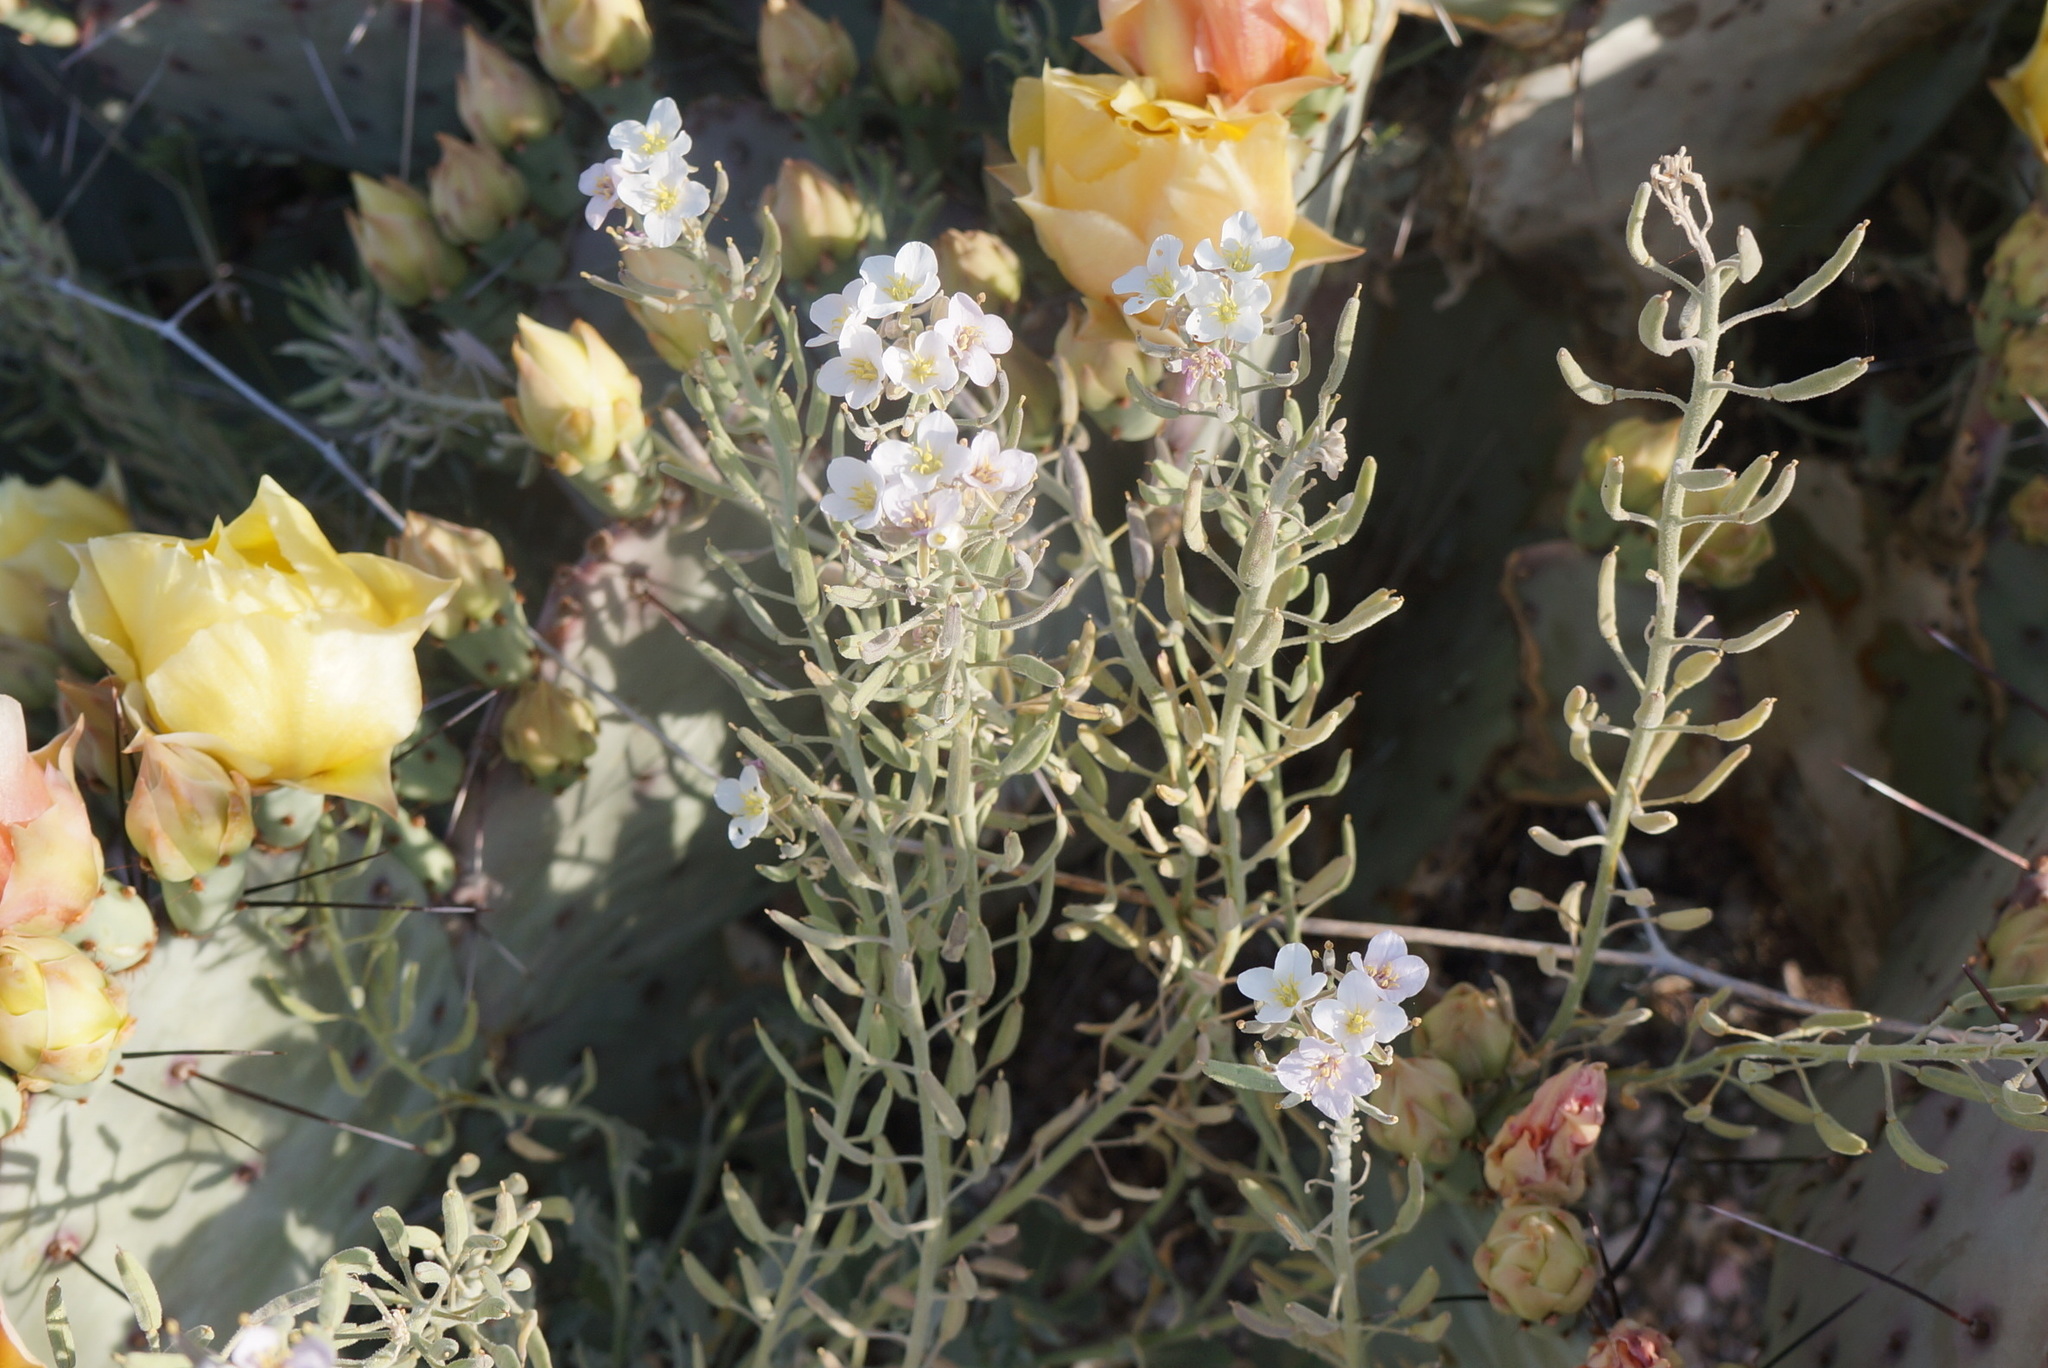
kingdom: Plantae
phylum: Tracheophyta
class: Magnoliopsida
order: Brassicales
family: Brassicaceae
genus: Nerisyrenia
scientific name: Nerisyrenia camporum
